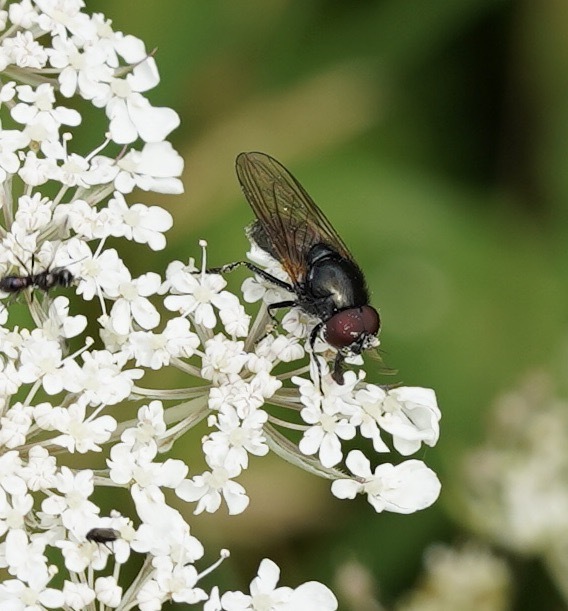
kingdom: Animalia
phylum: Arthropoda
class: Insecta
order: Diptera
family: Syrphidae
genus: Cheilosia
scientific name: Cheilosia impressa
